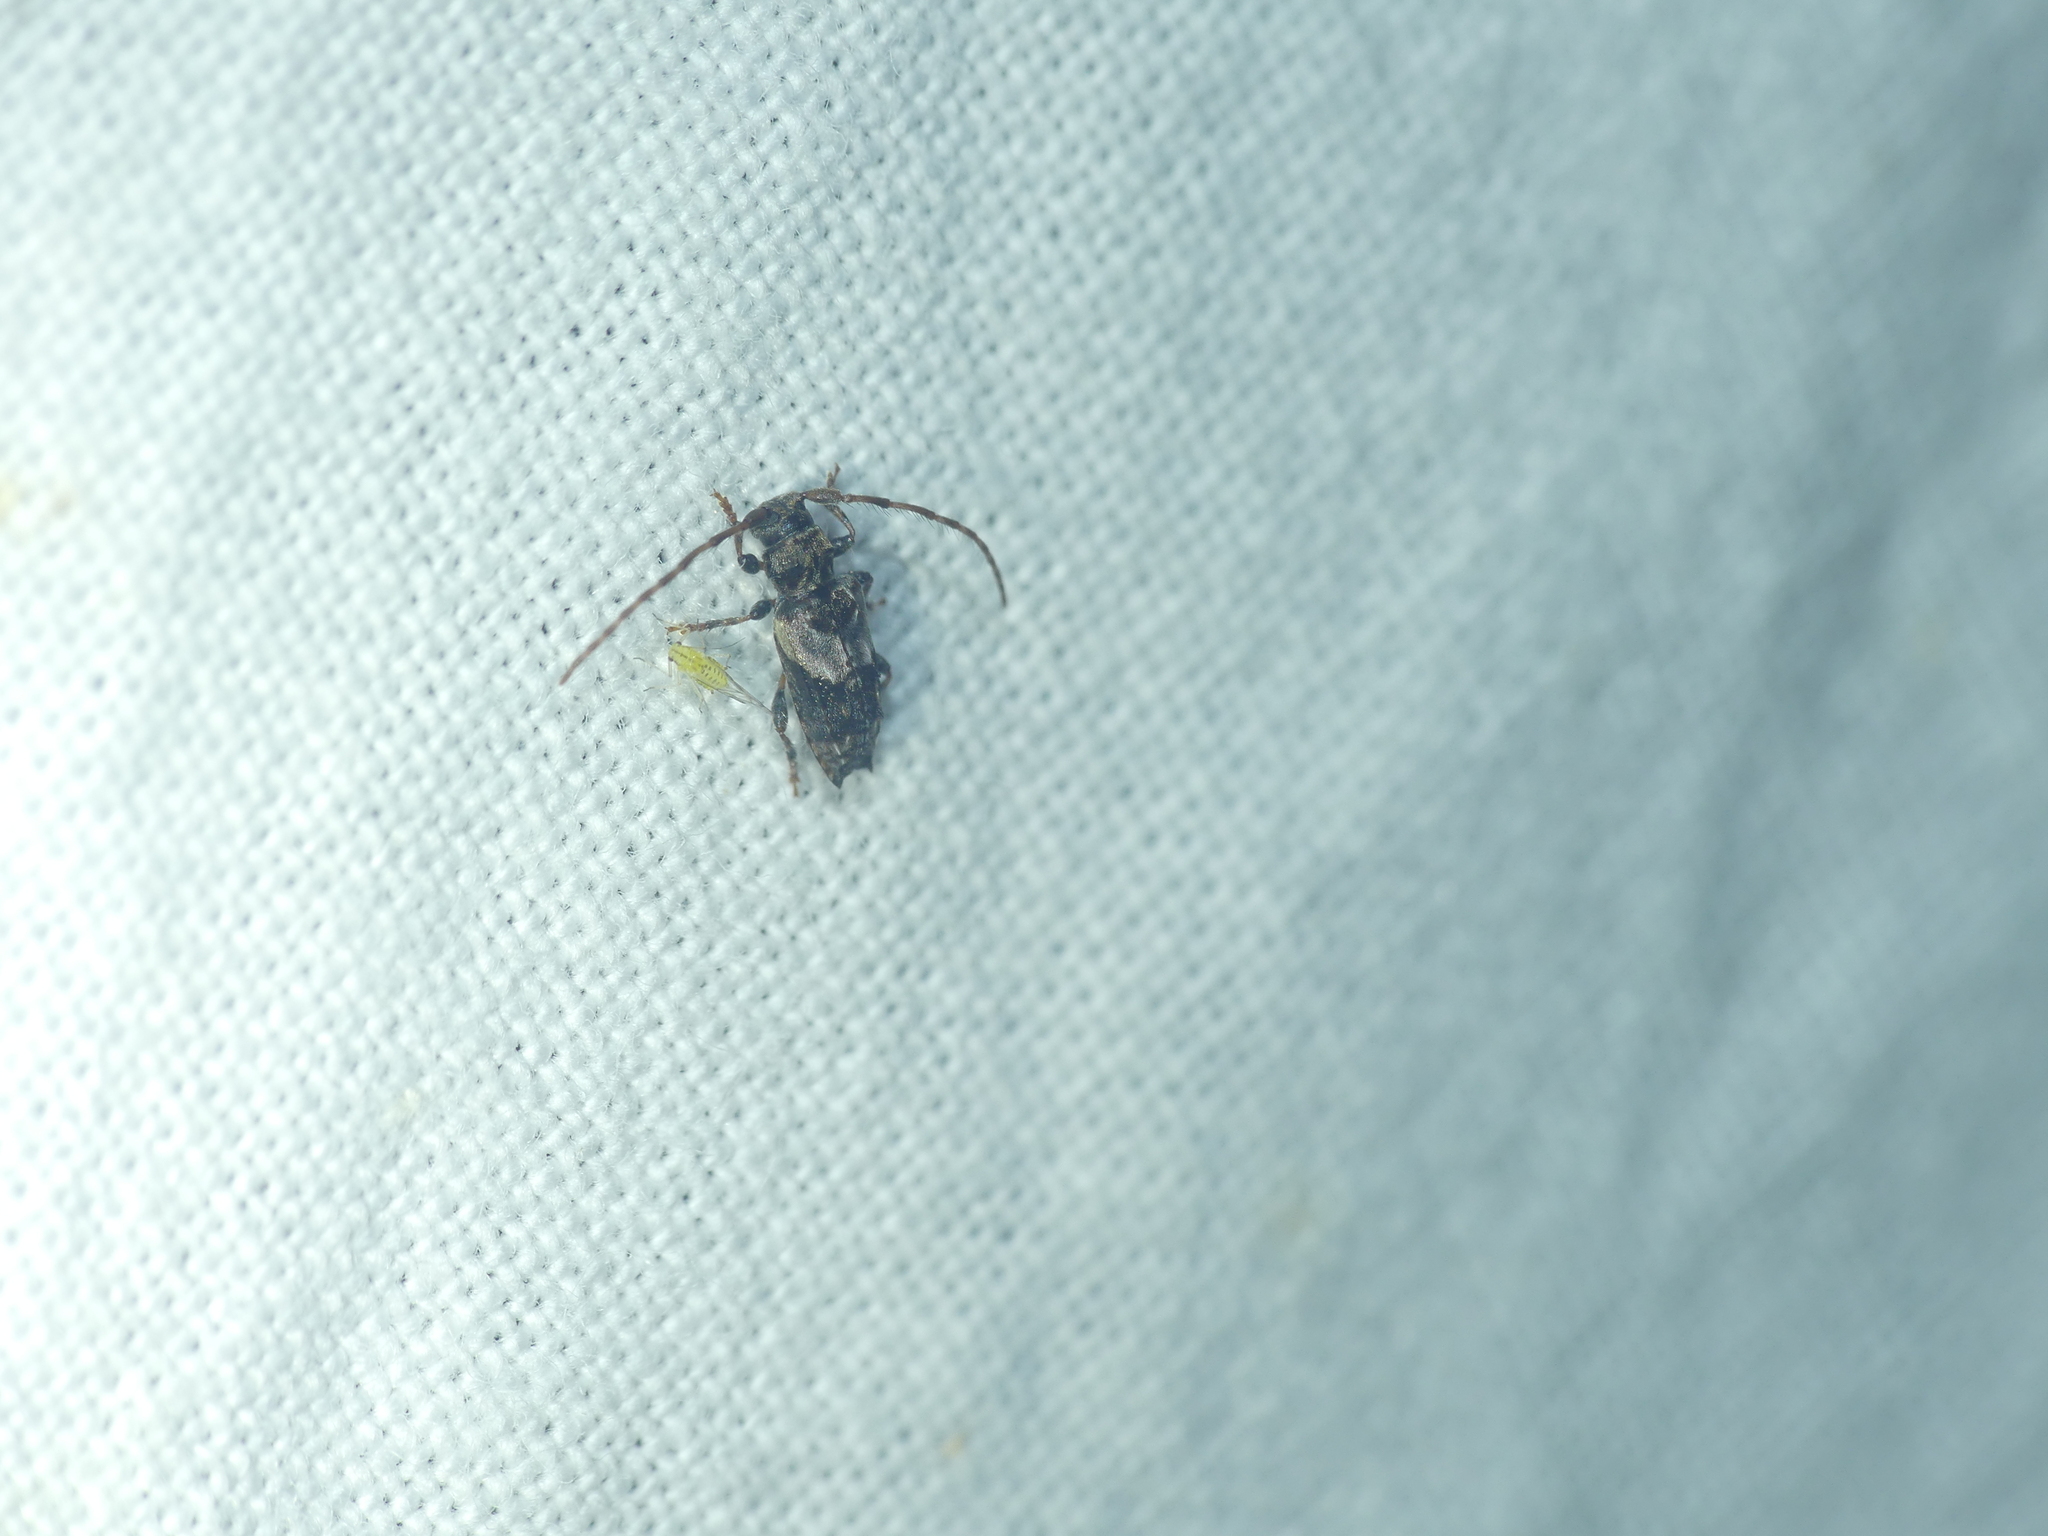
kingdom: Animalia
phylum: Arthropoda
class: Insecta
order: Coleoptera
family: Cerambycidae
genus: Pogonocherus
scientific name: Pogonocherus hispidus
